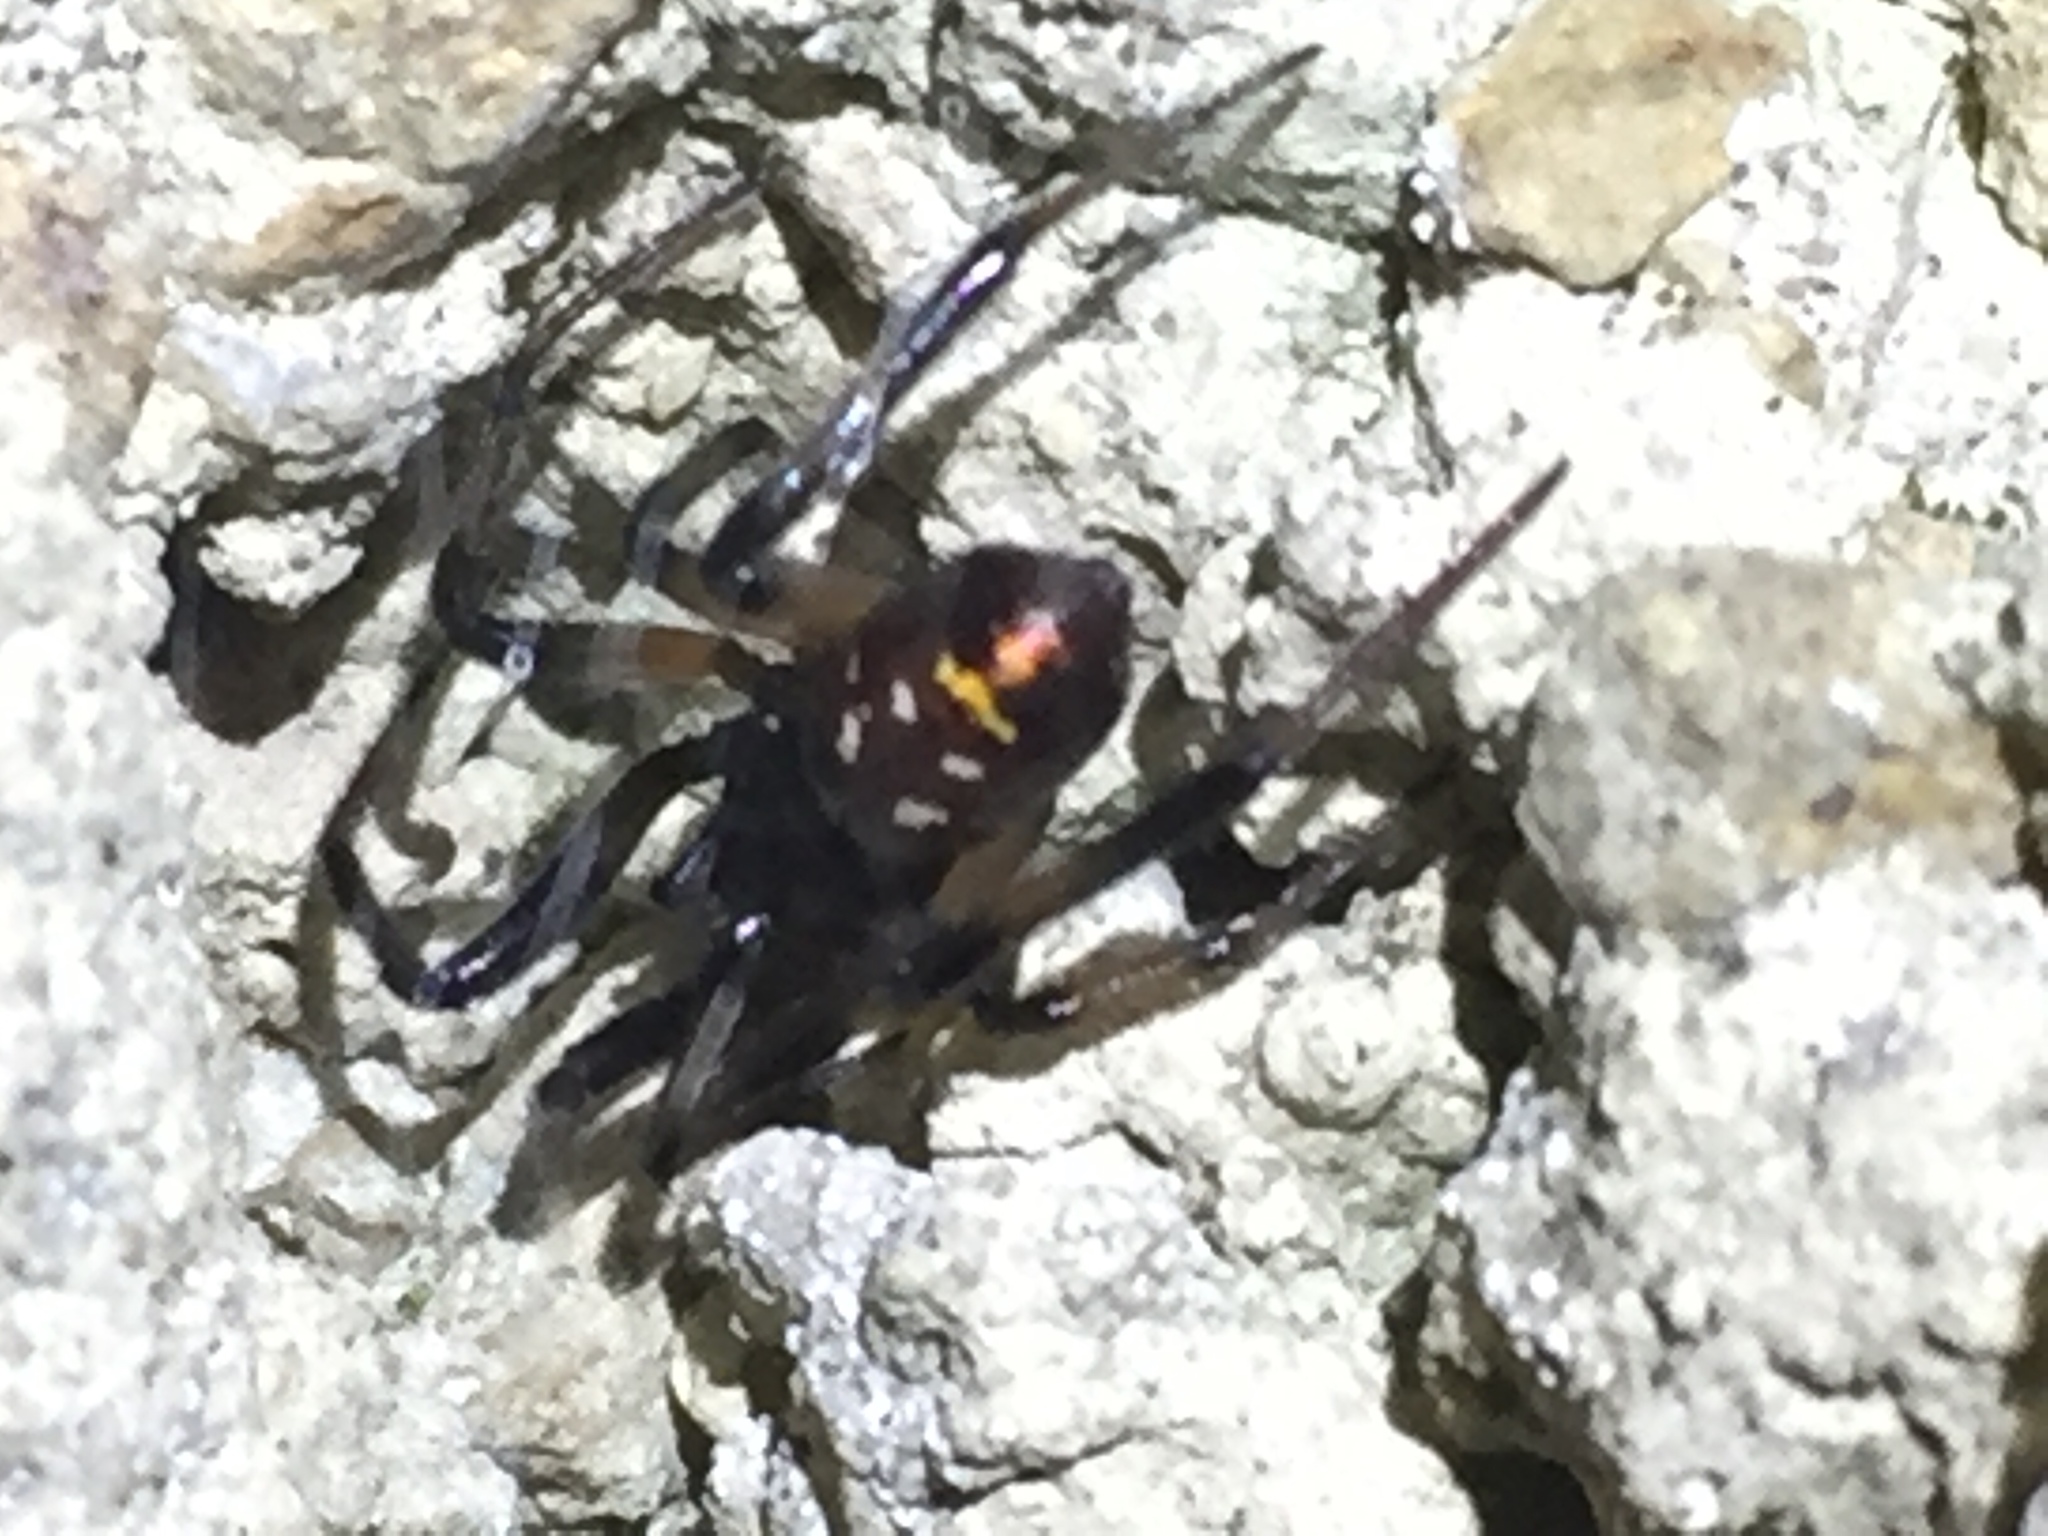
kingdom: Animalia
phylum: Arthropoda
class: Arachnida
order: Araneae
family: Theridiidae
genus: Steatoda
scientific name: Steatoda capensis
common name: Cobweb weaver
